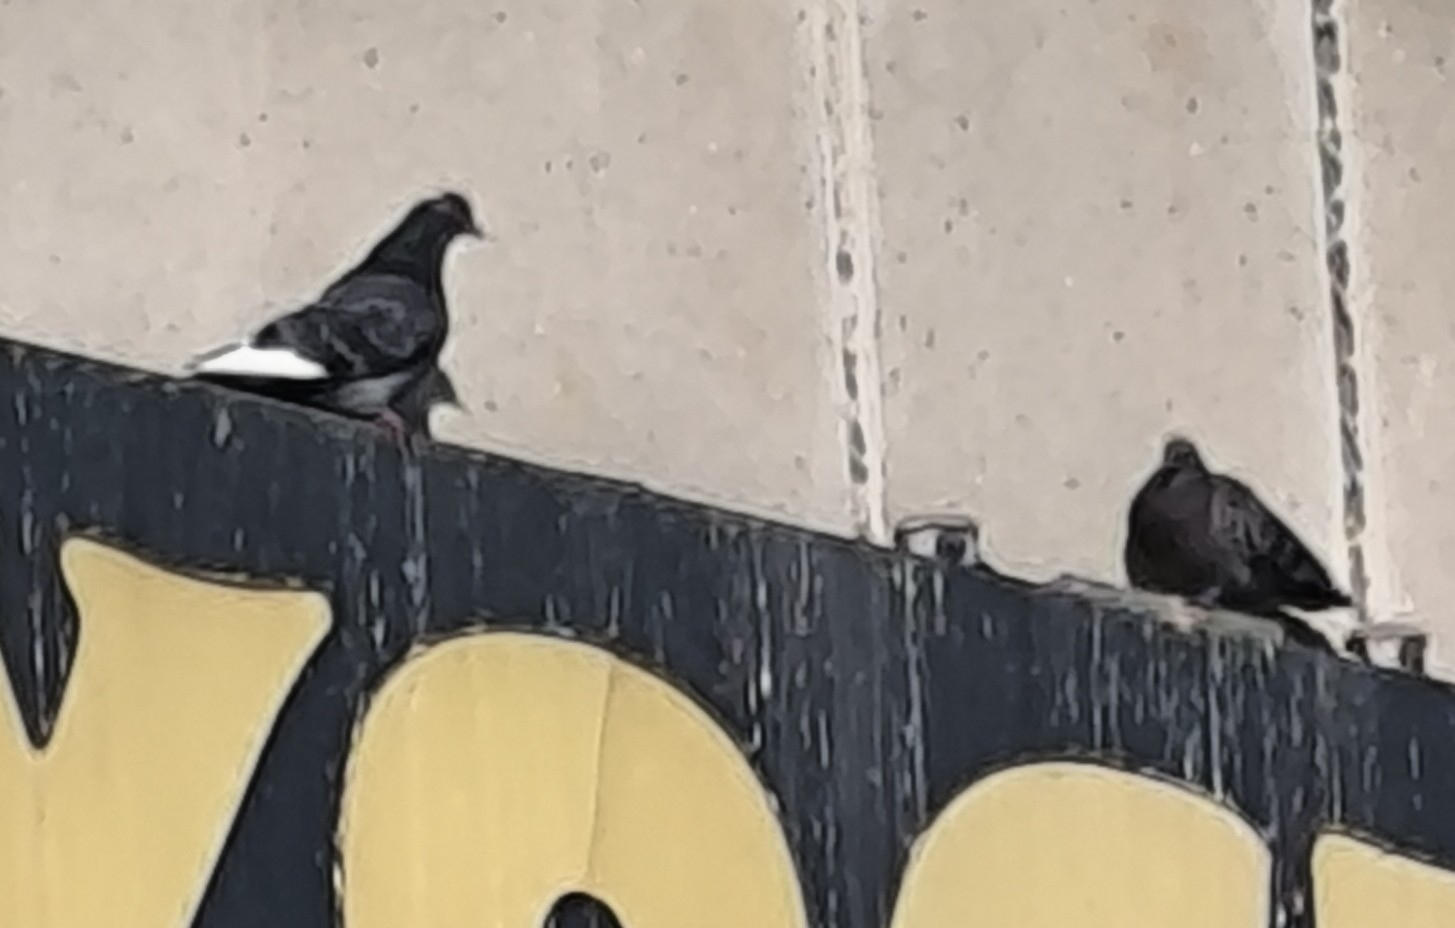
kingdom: Animalia
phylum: Chordata
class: Aves
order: Columbiformes
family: Columbidae
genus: Columba
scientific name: Columba livia
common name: Rock pigeon
